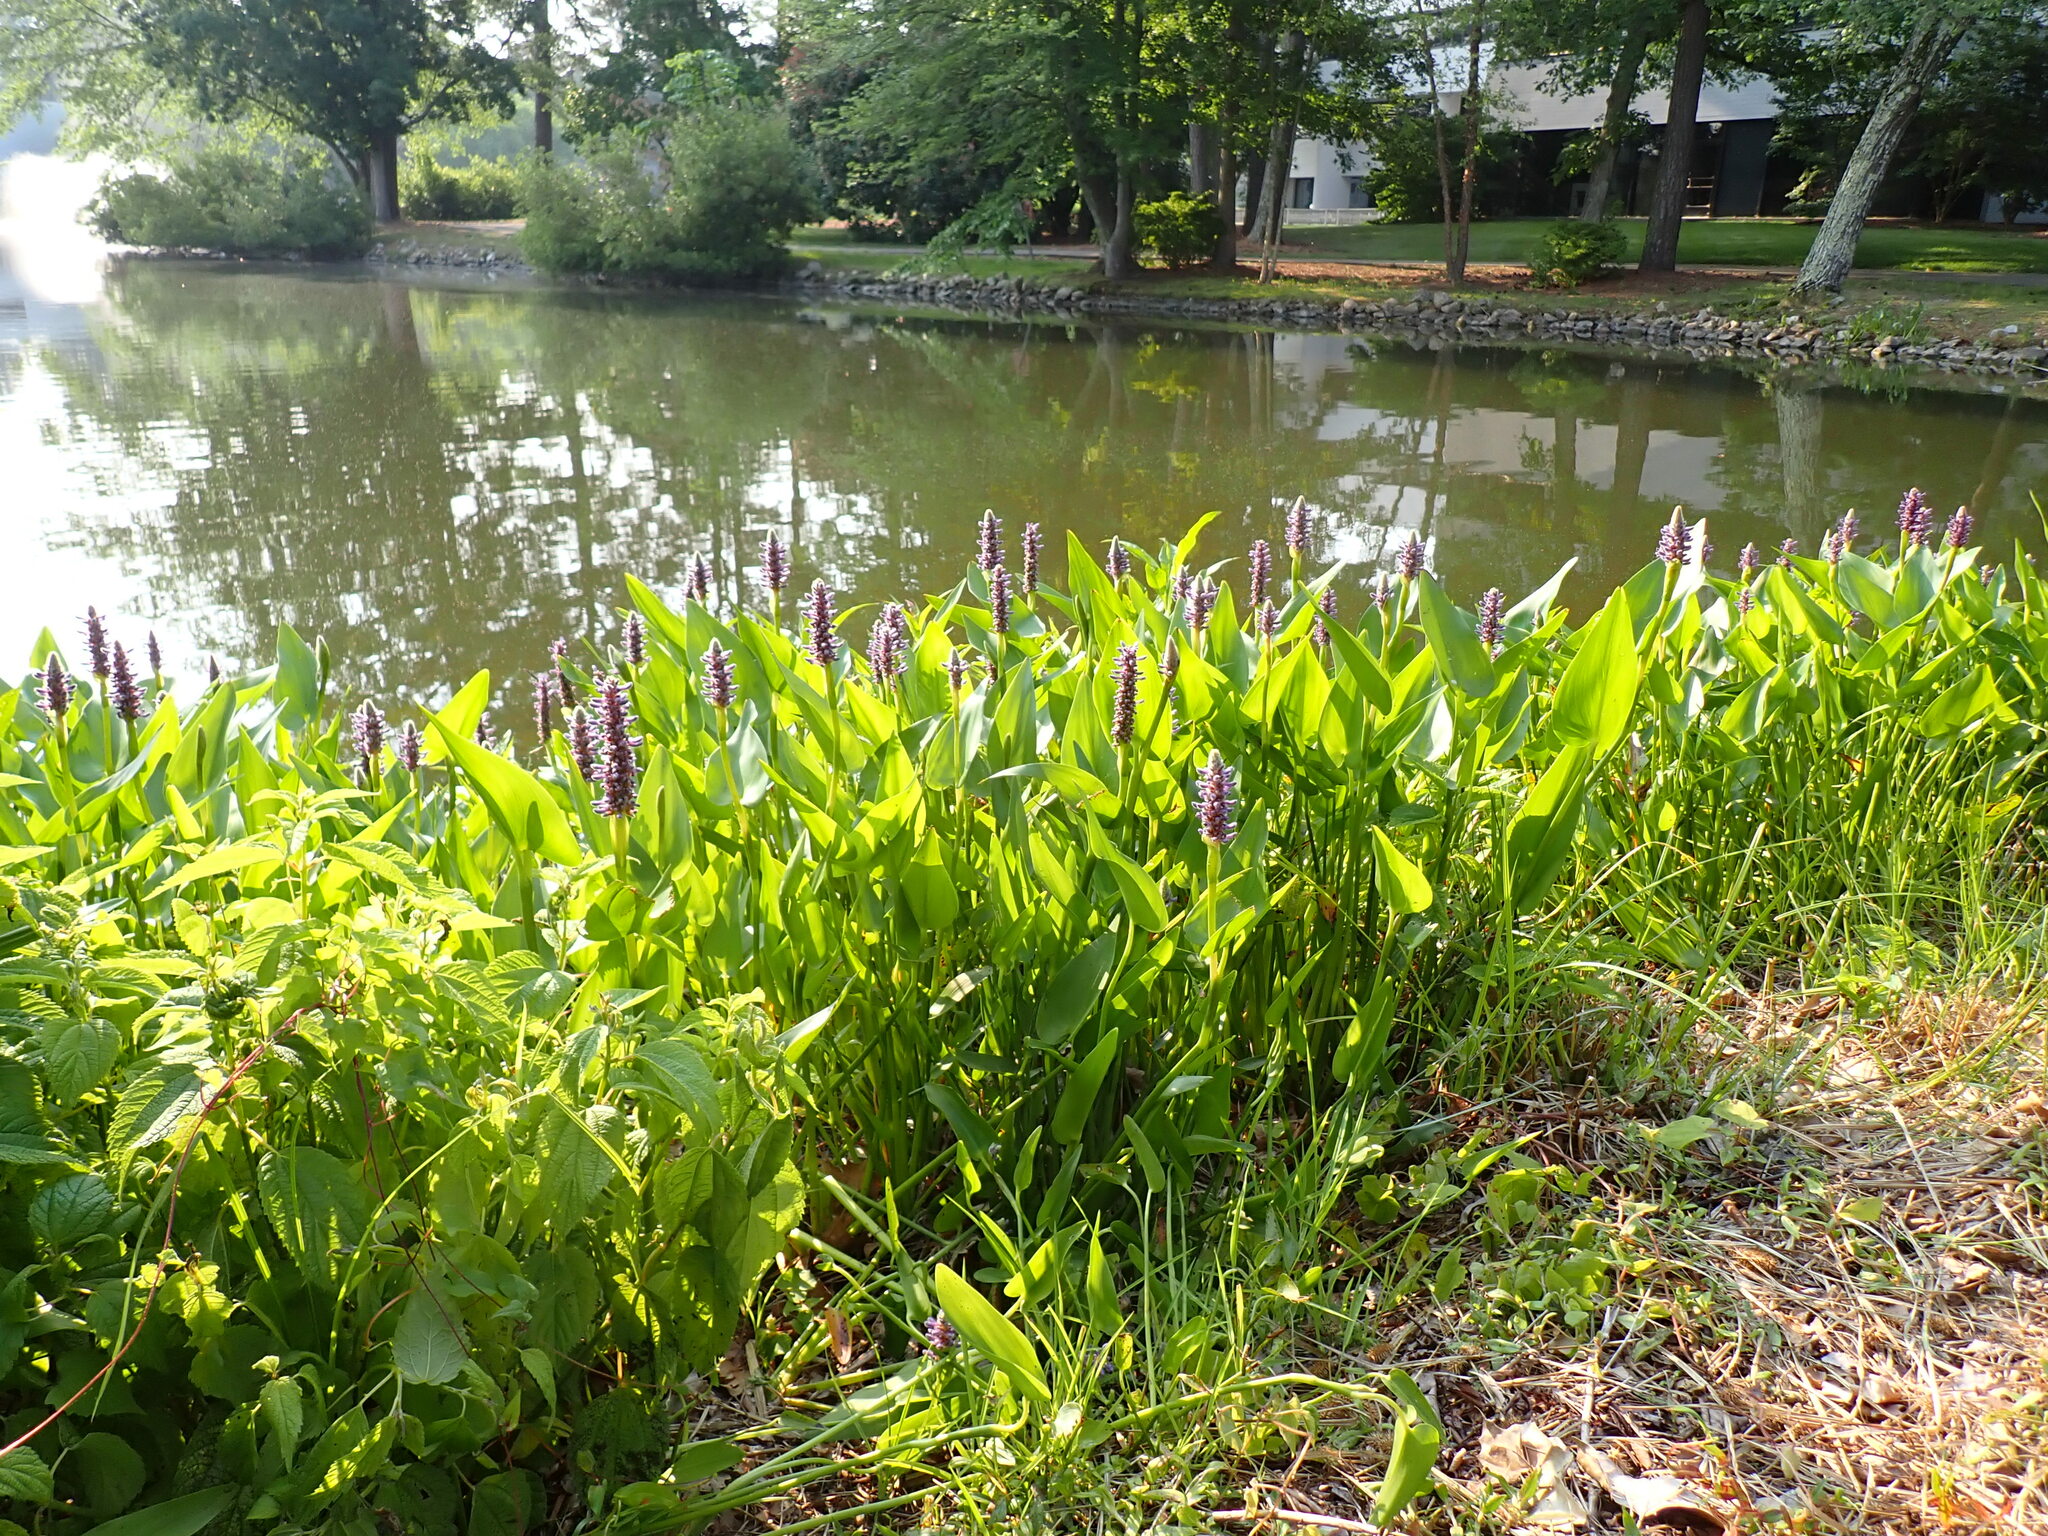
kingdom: Plantae
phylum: Tracheophyta
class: Liliopsida
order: Commelinales
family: Pontederiaceae
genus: Pontederia
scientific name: Pontederia cordata
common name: Pickerelweed
